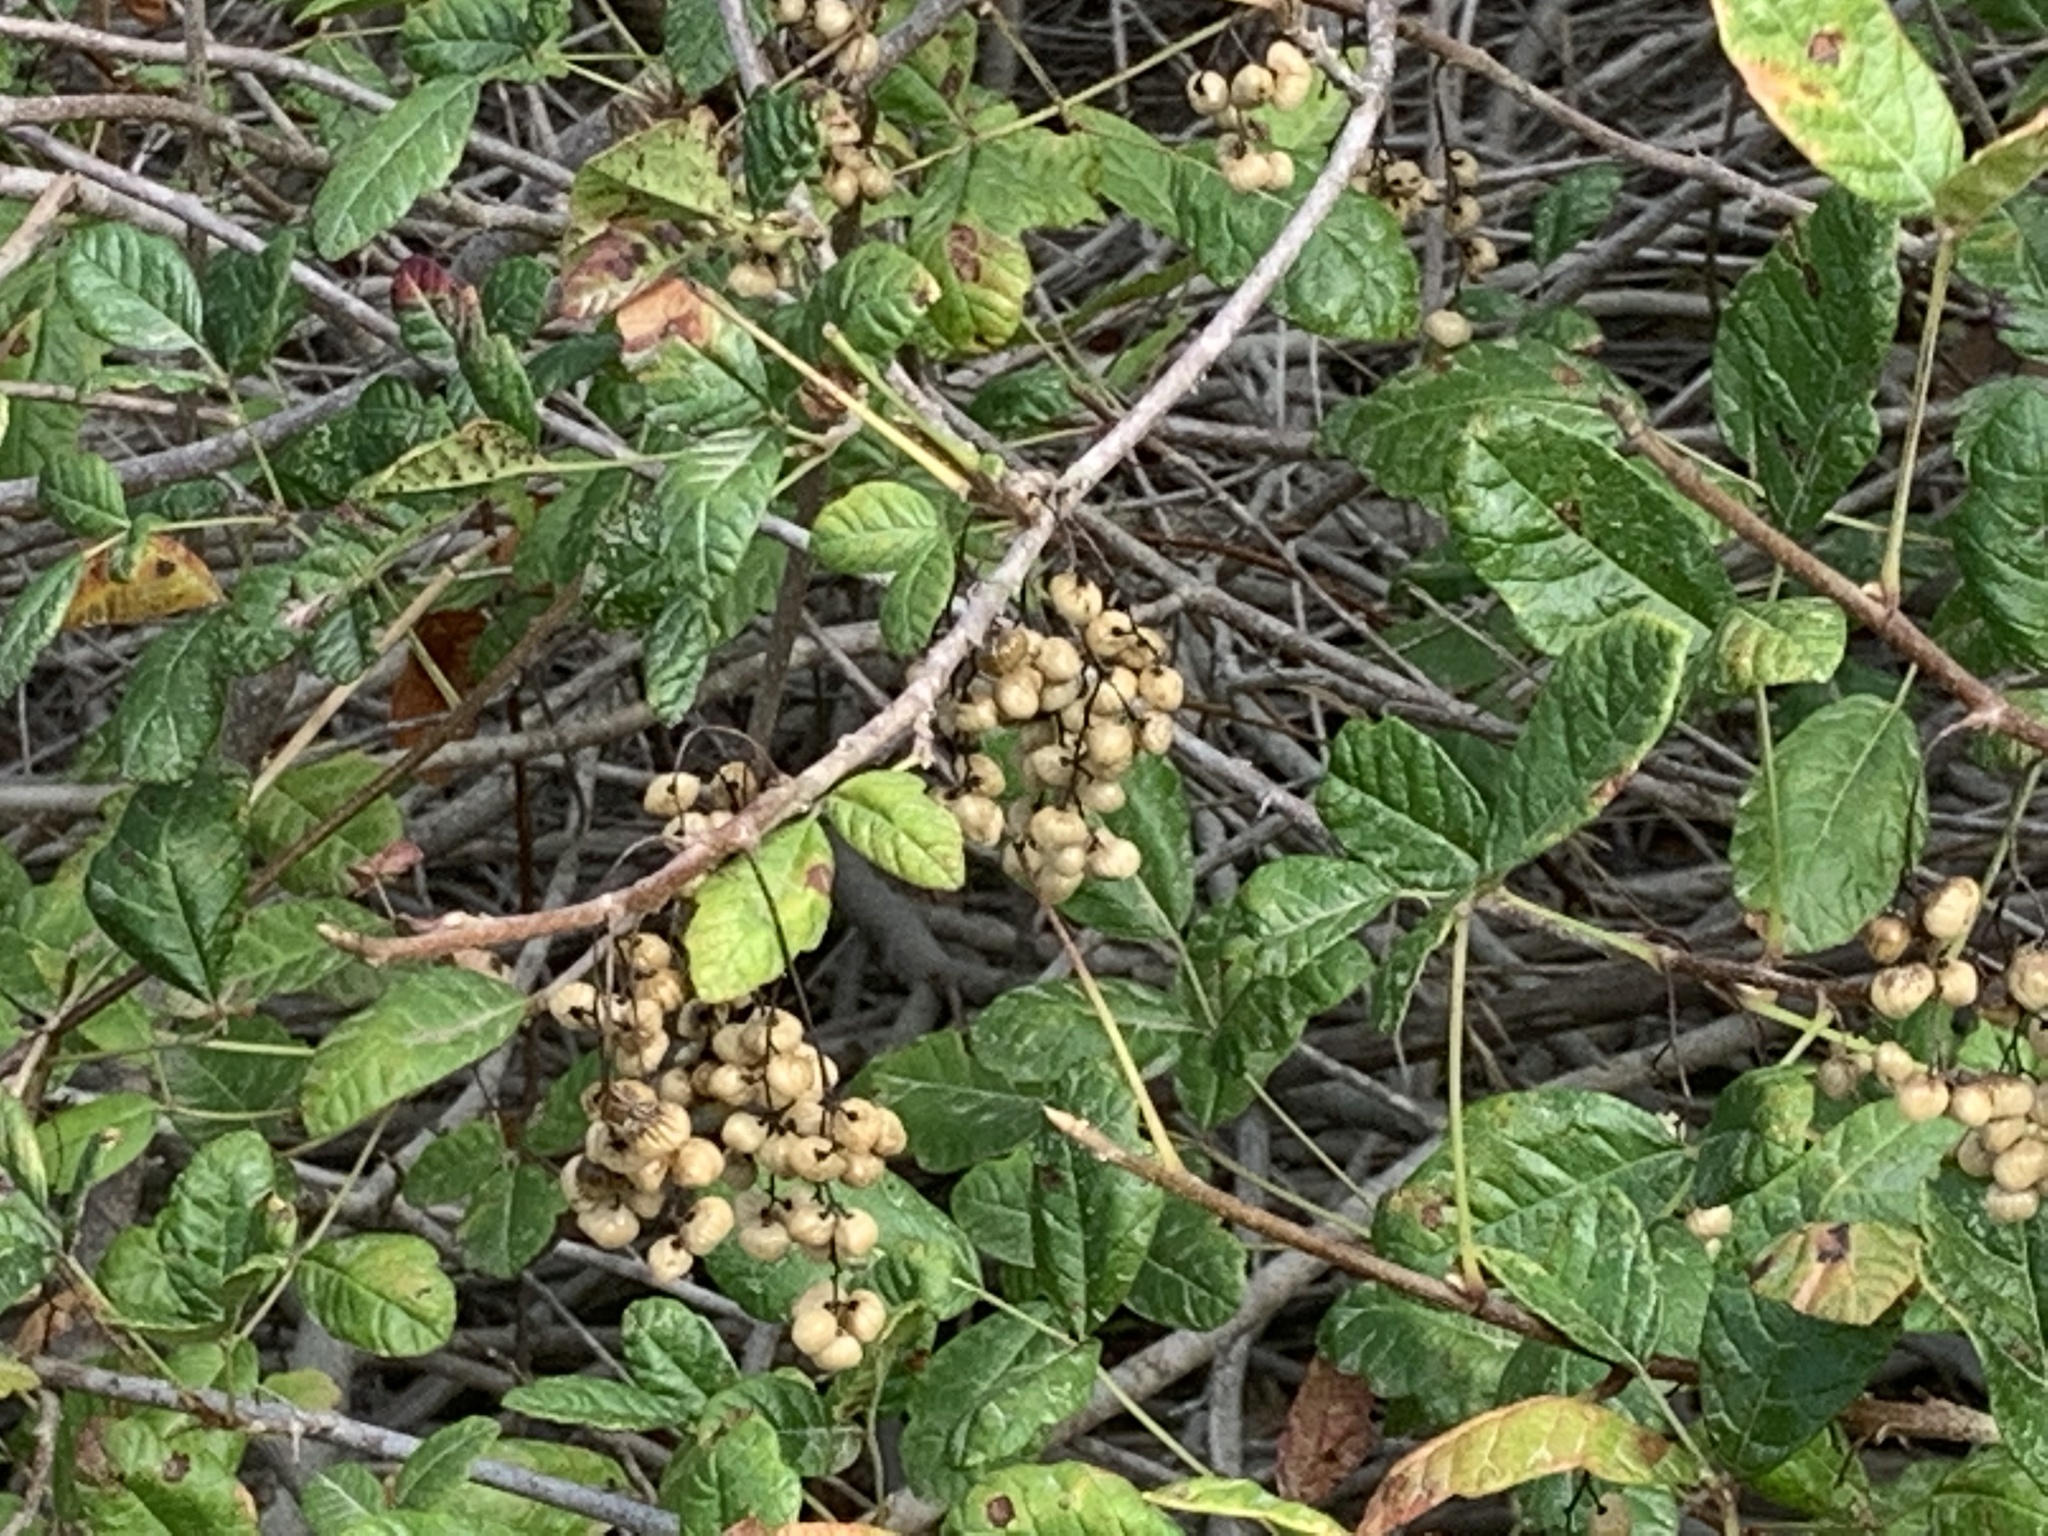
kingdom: Plantae
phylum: Tracheophyta
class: Magnoliopsida
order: Sapindales
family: Anacardiaceae
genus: Toxicodendron
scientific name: Toxicodendron diversilobum
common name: Pacific poison-oak
